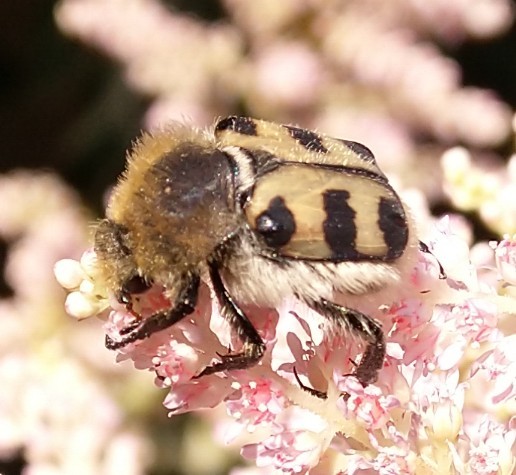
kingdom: Animalia
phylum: Arthropoda
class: Insecta
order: Coleoptera
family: Scarabaeidae
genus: Trichius
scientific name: Trichius gallicus
